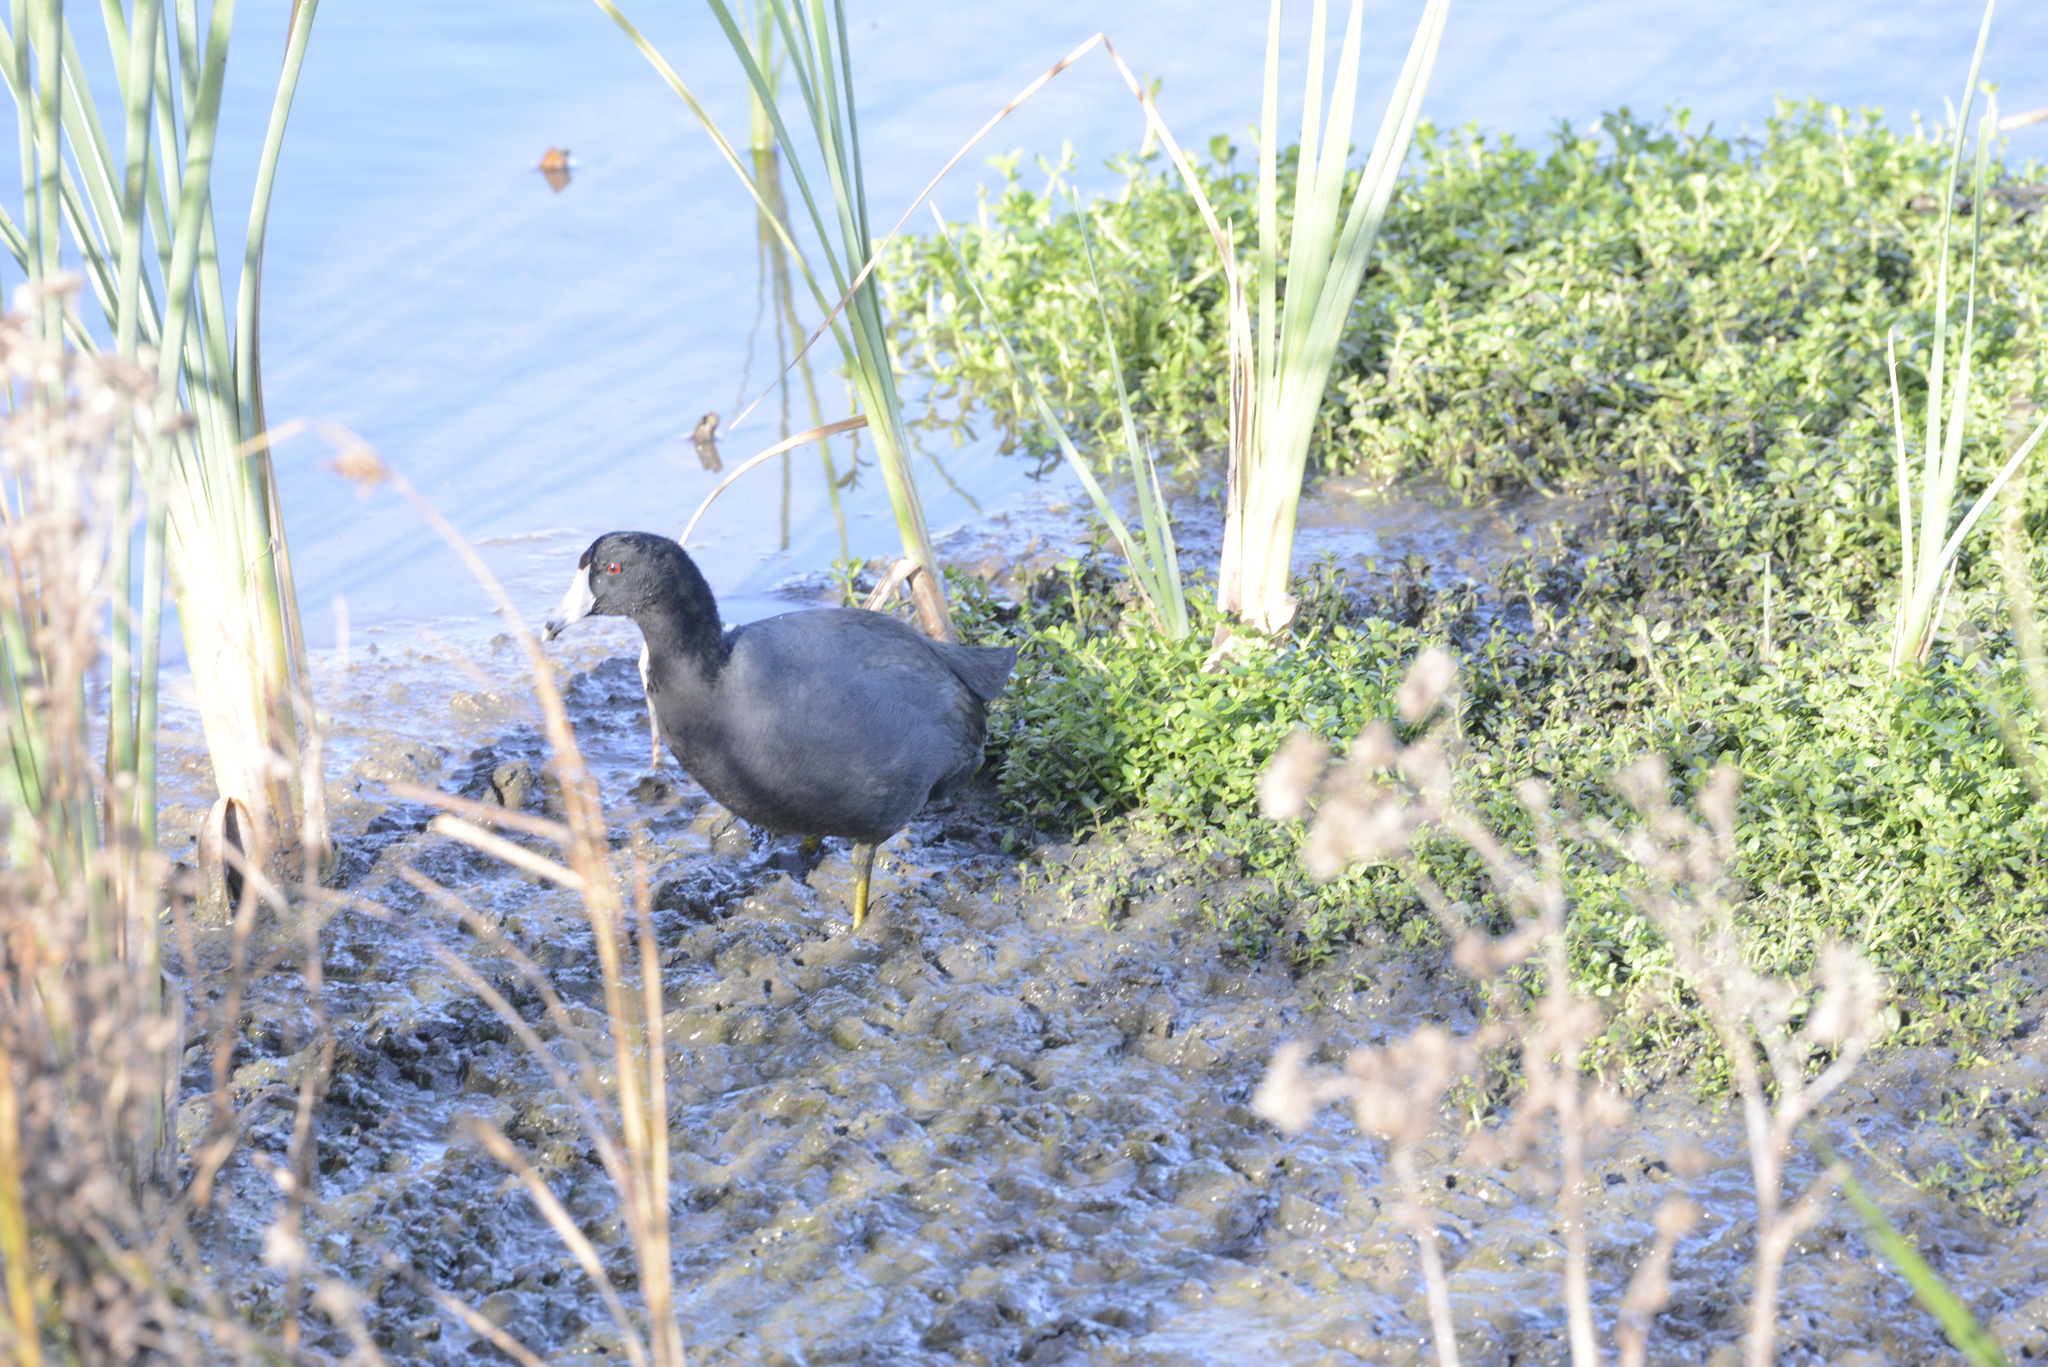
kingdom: Animalia
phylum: Chordata
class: Aves
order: Gruiformes
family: Rallidae
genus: Fulica
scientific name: Fulica americana
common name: American coot
